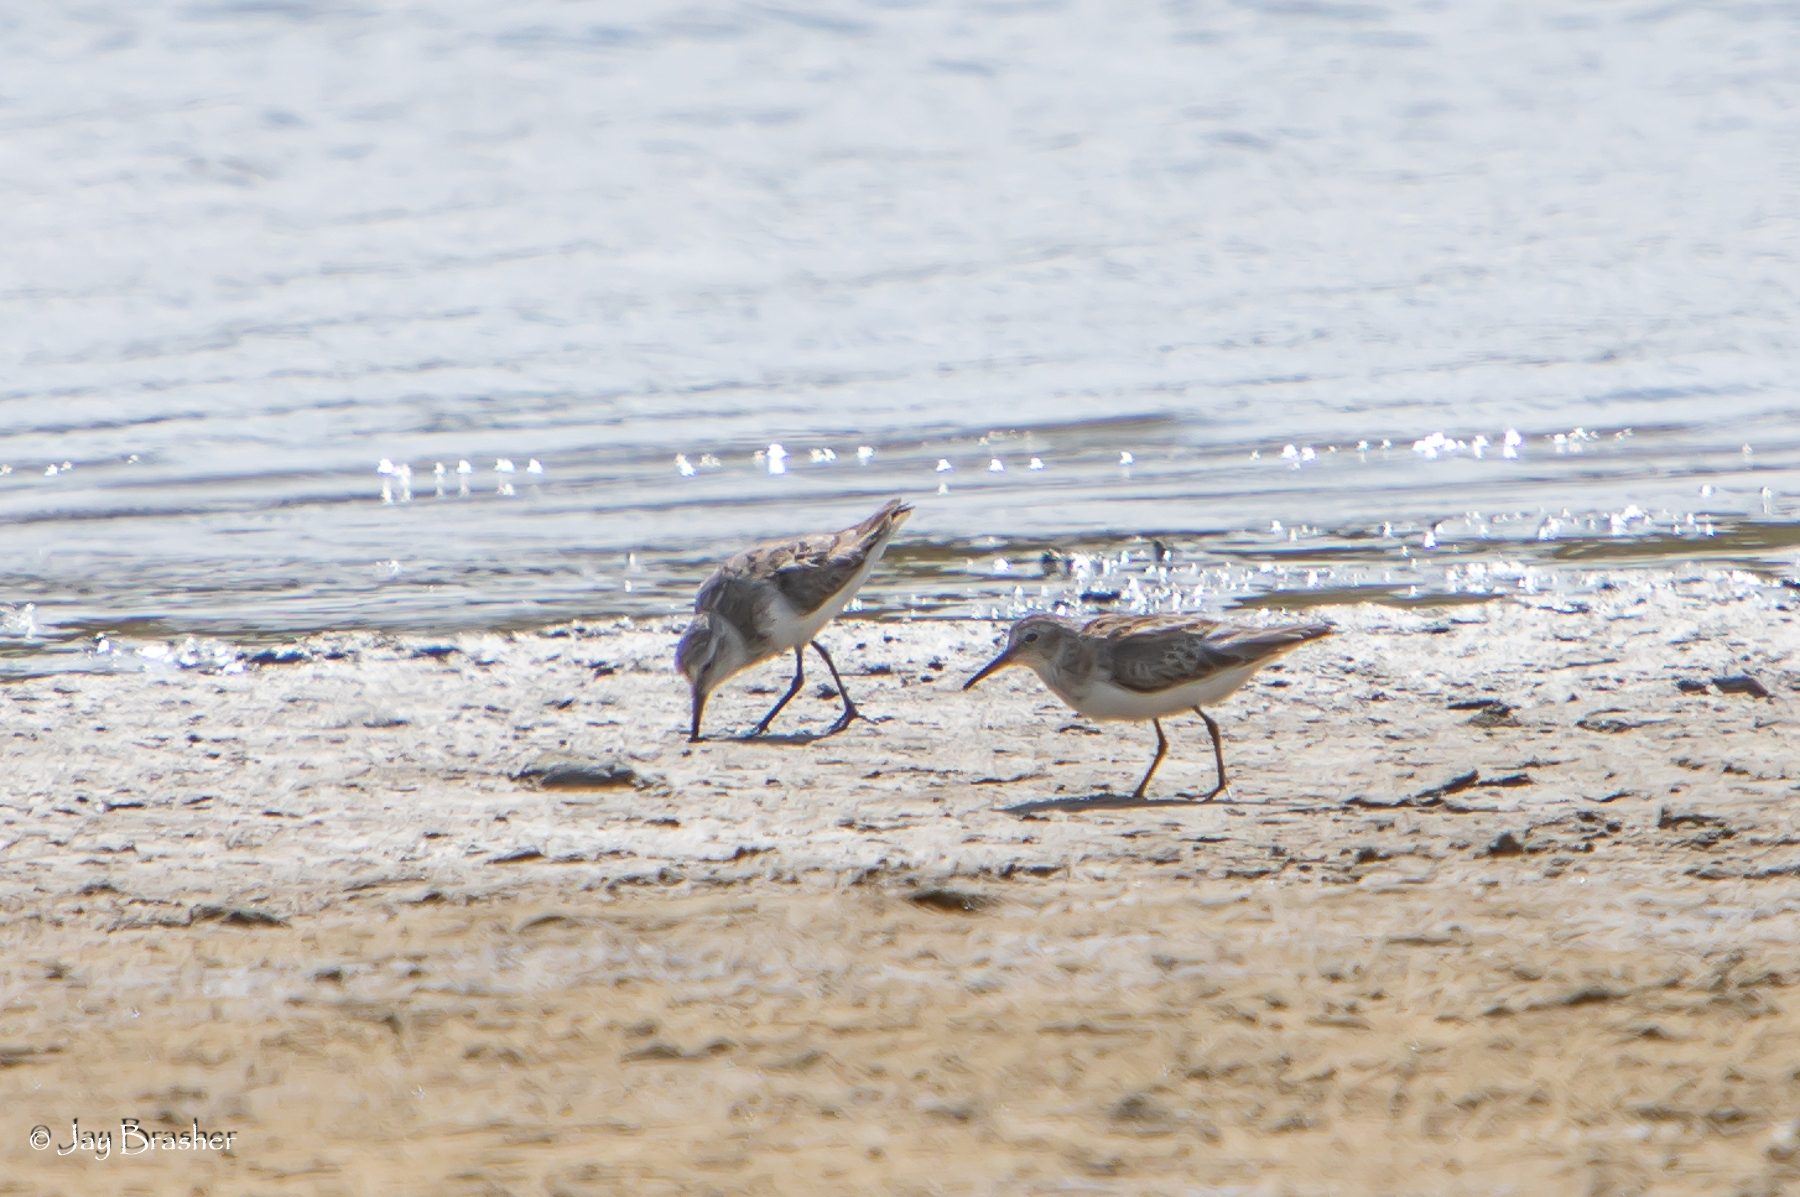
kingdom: Animalia
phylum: Chordata
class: Aves
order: Charadriiformes
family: Scolopacidae
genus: Calidris
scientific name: Calidris minutilla
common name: Least sandpiper
